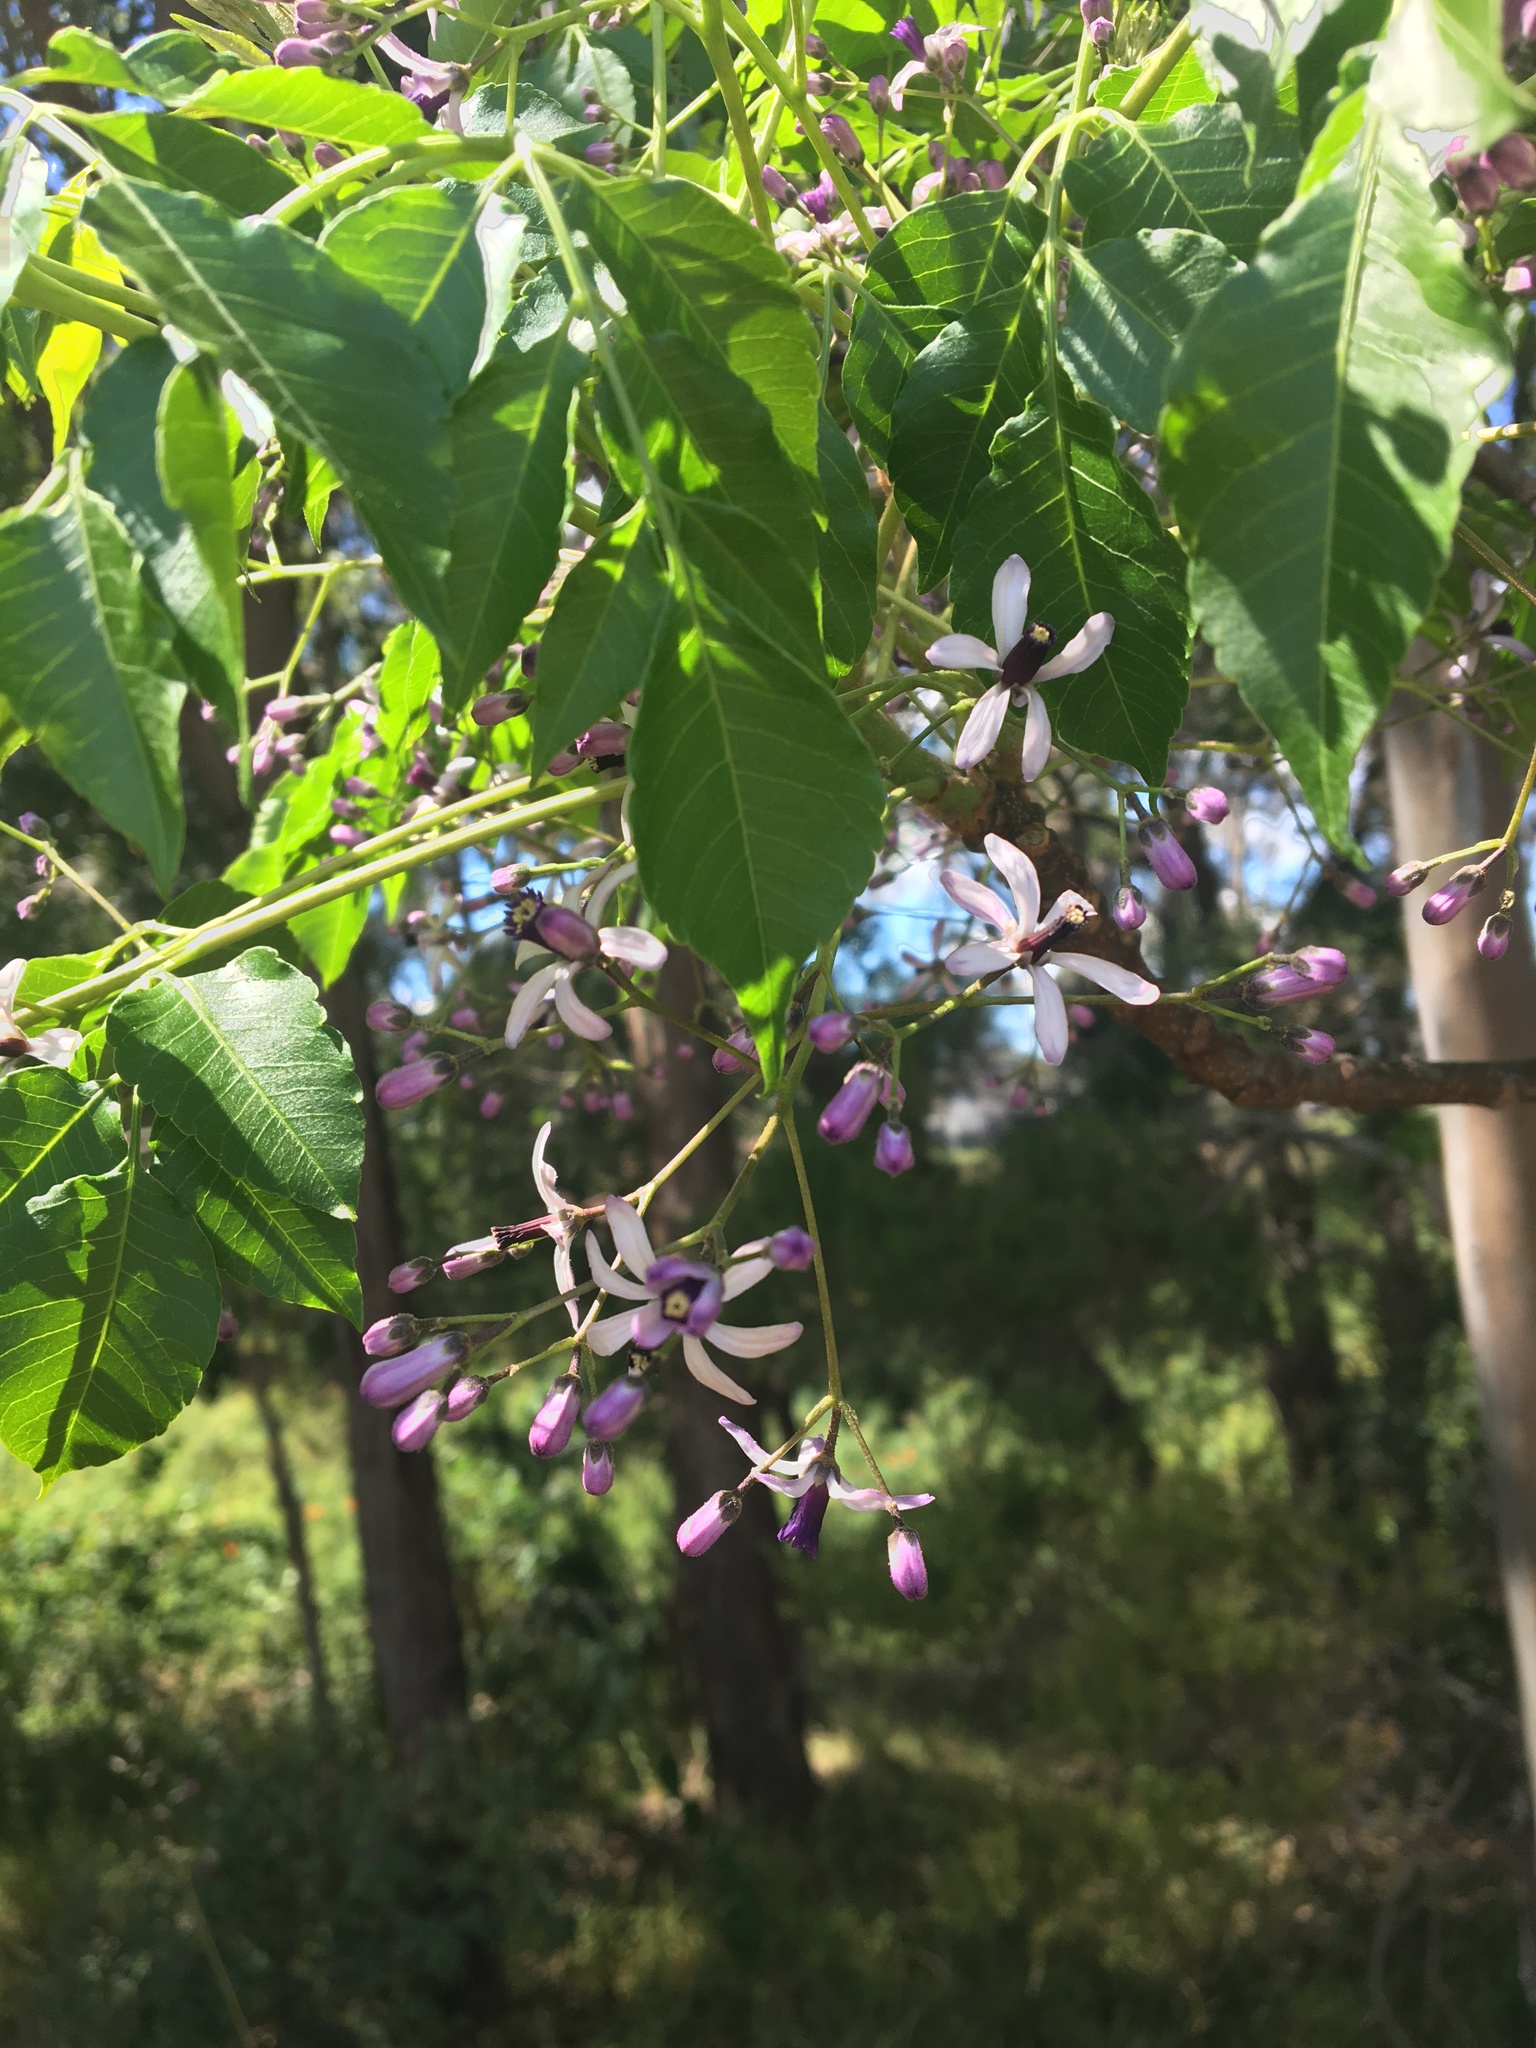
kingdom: Plantae
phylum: Tracheophyta
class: Magnoliopsida
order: Sapindales
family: Meliaceae
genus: Melia
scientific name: Melia azedarach
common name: Chinaberrytree
